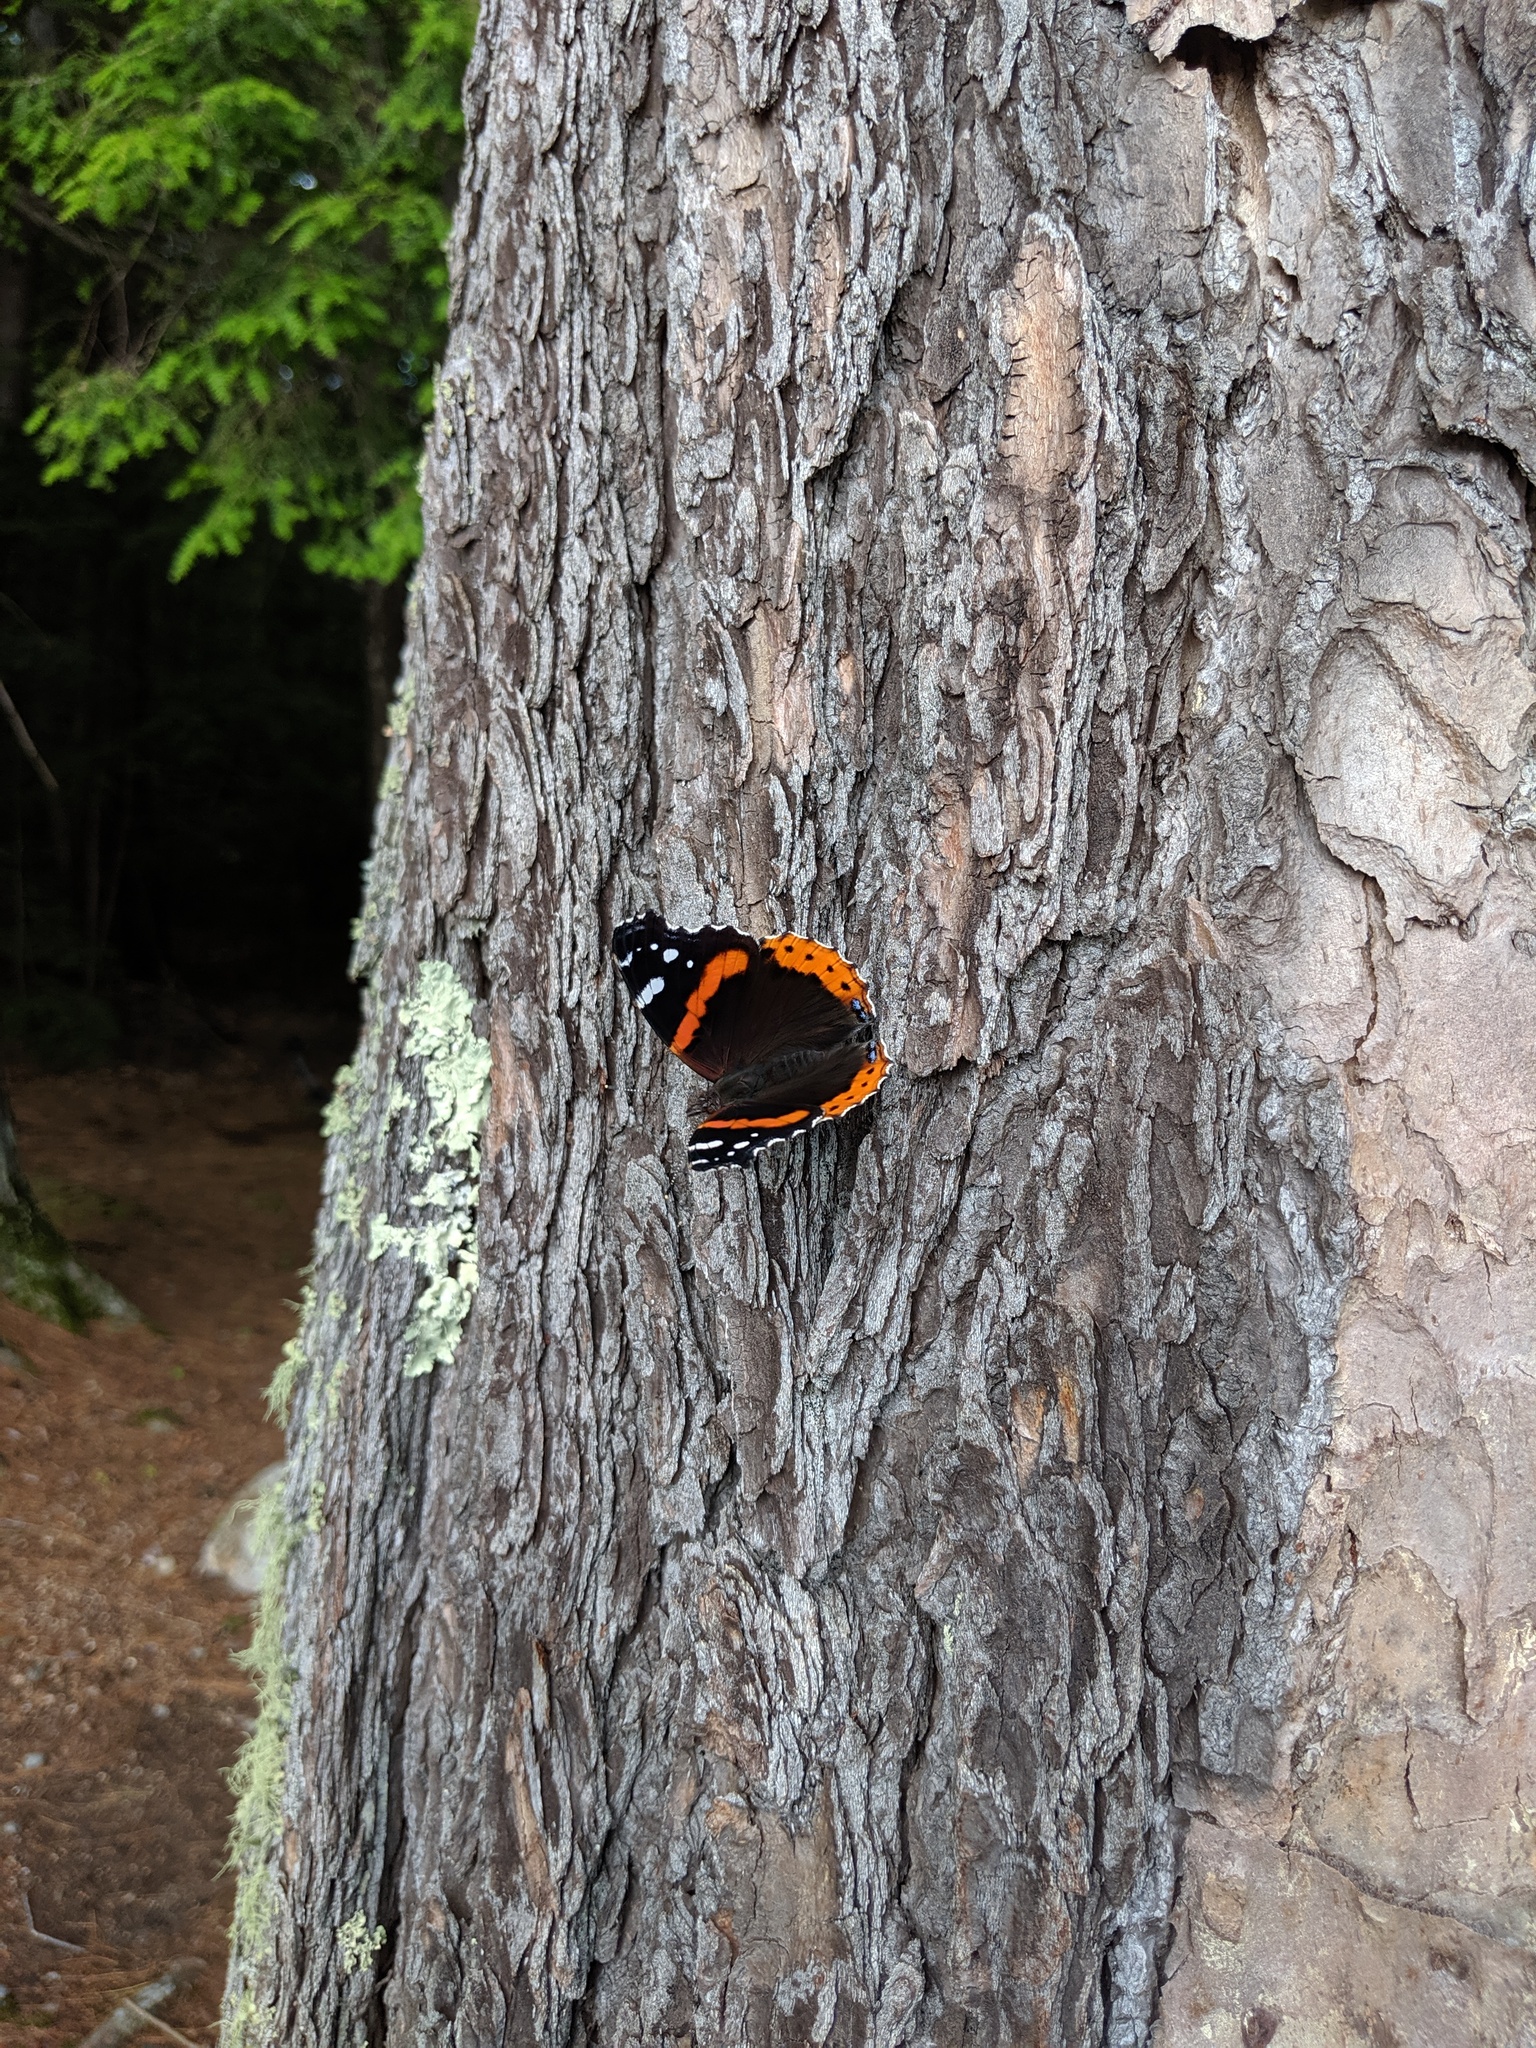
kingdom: Animalia
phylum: Arthropoda
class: Insecta
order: Lepidoptera
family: Nymphalidae
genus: Vanessa
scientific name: Vanessa atalanta
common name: Red admiral
